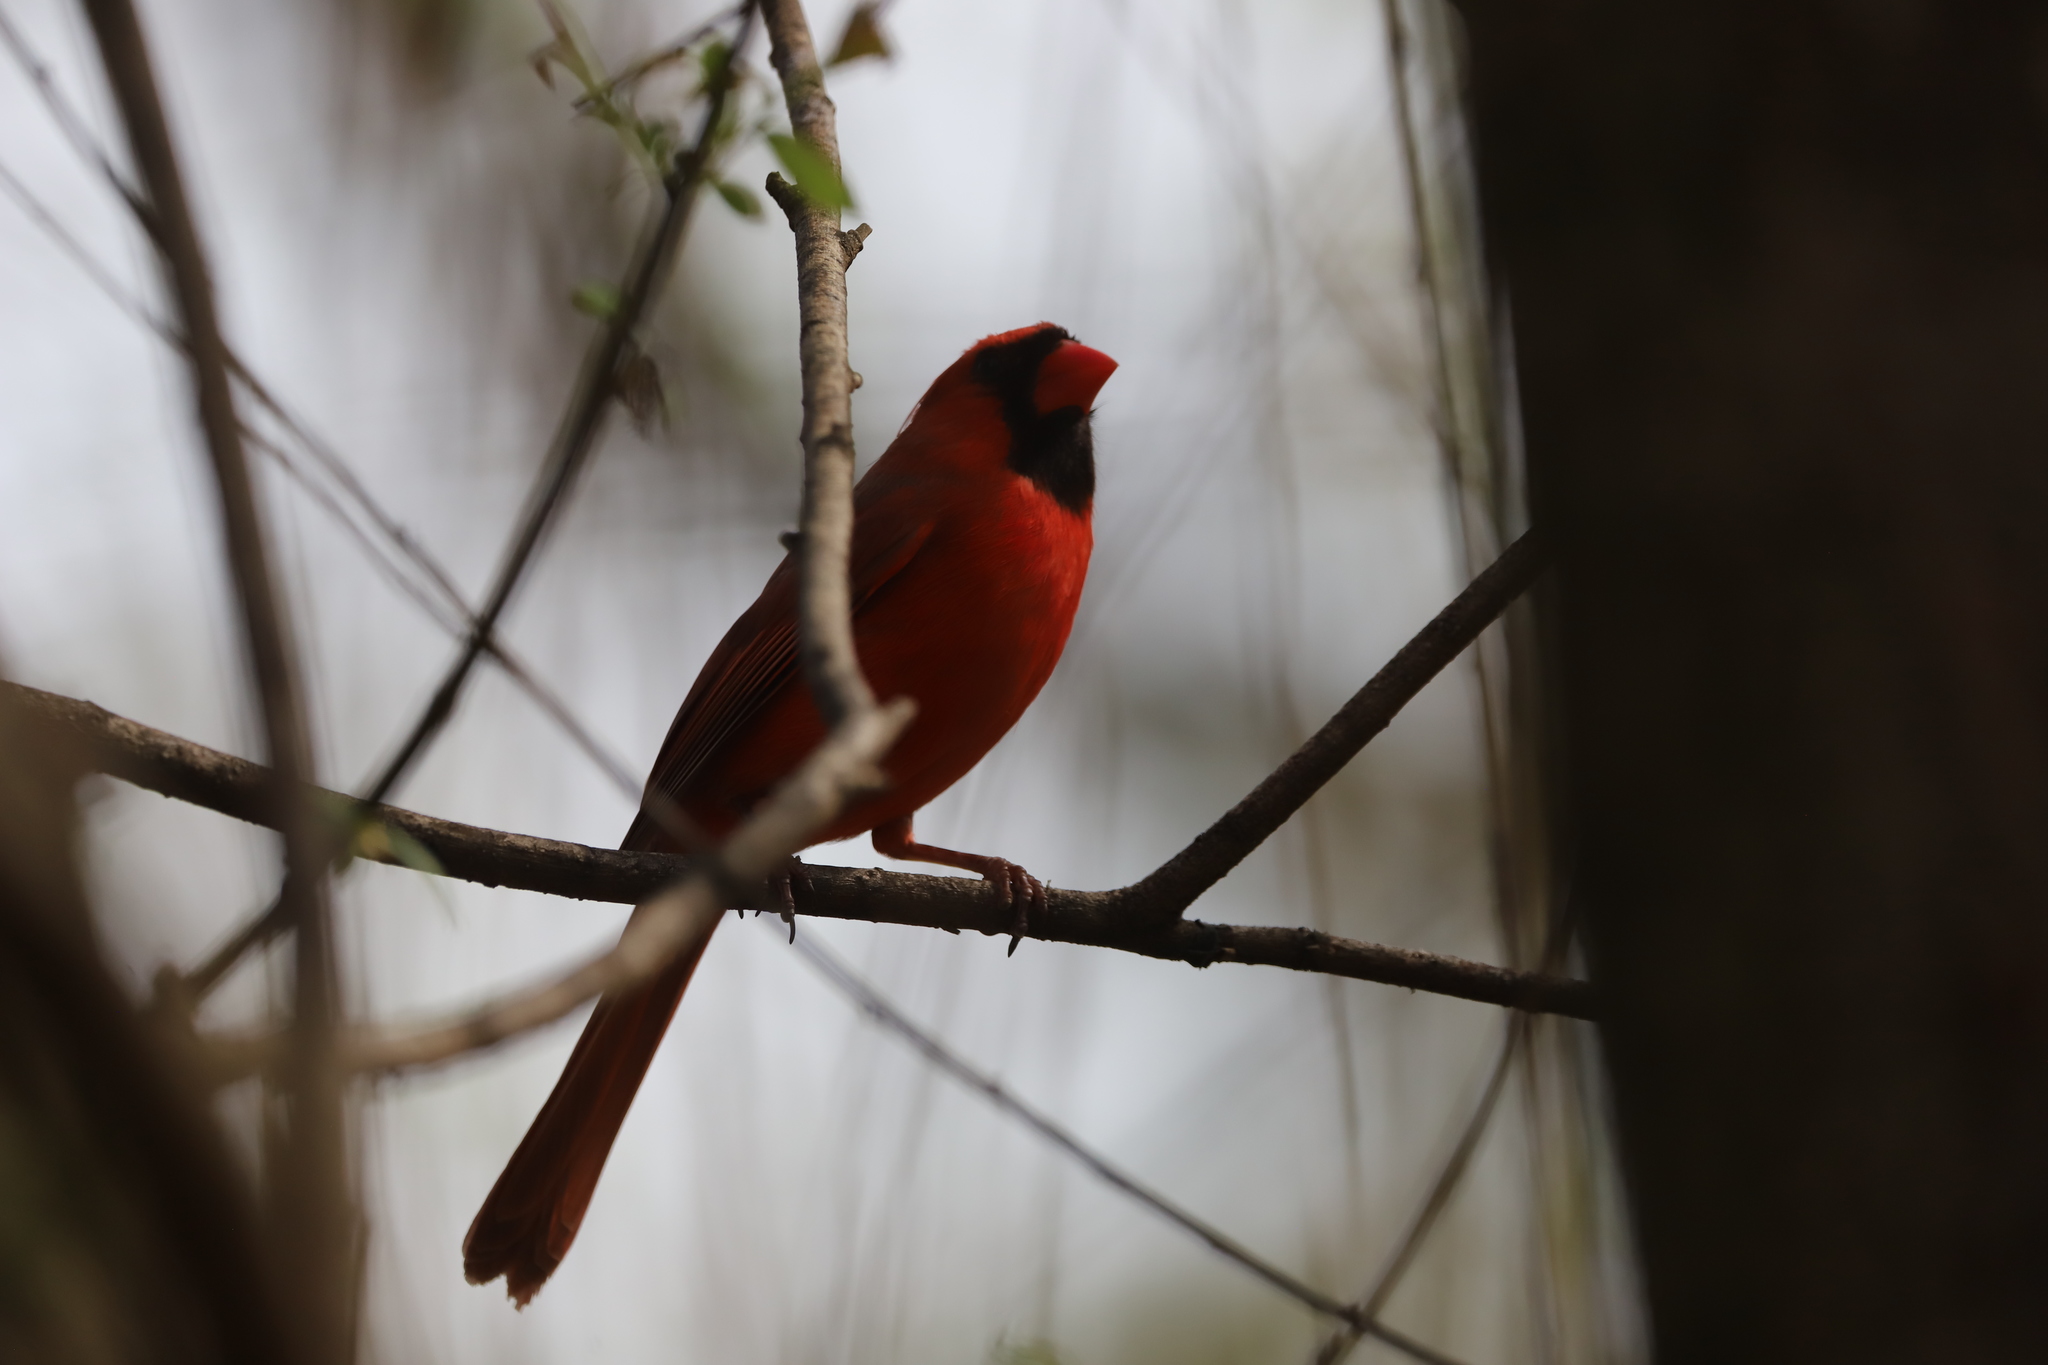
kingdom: Animalia
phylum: Chordata
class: Aves
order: Passeriformes
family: Cardinalidae
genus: Cardinalis
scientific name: Cardinalis cardinalis
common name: Northern cardinal
